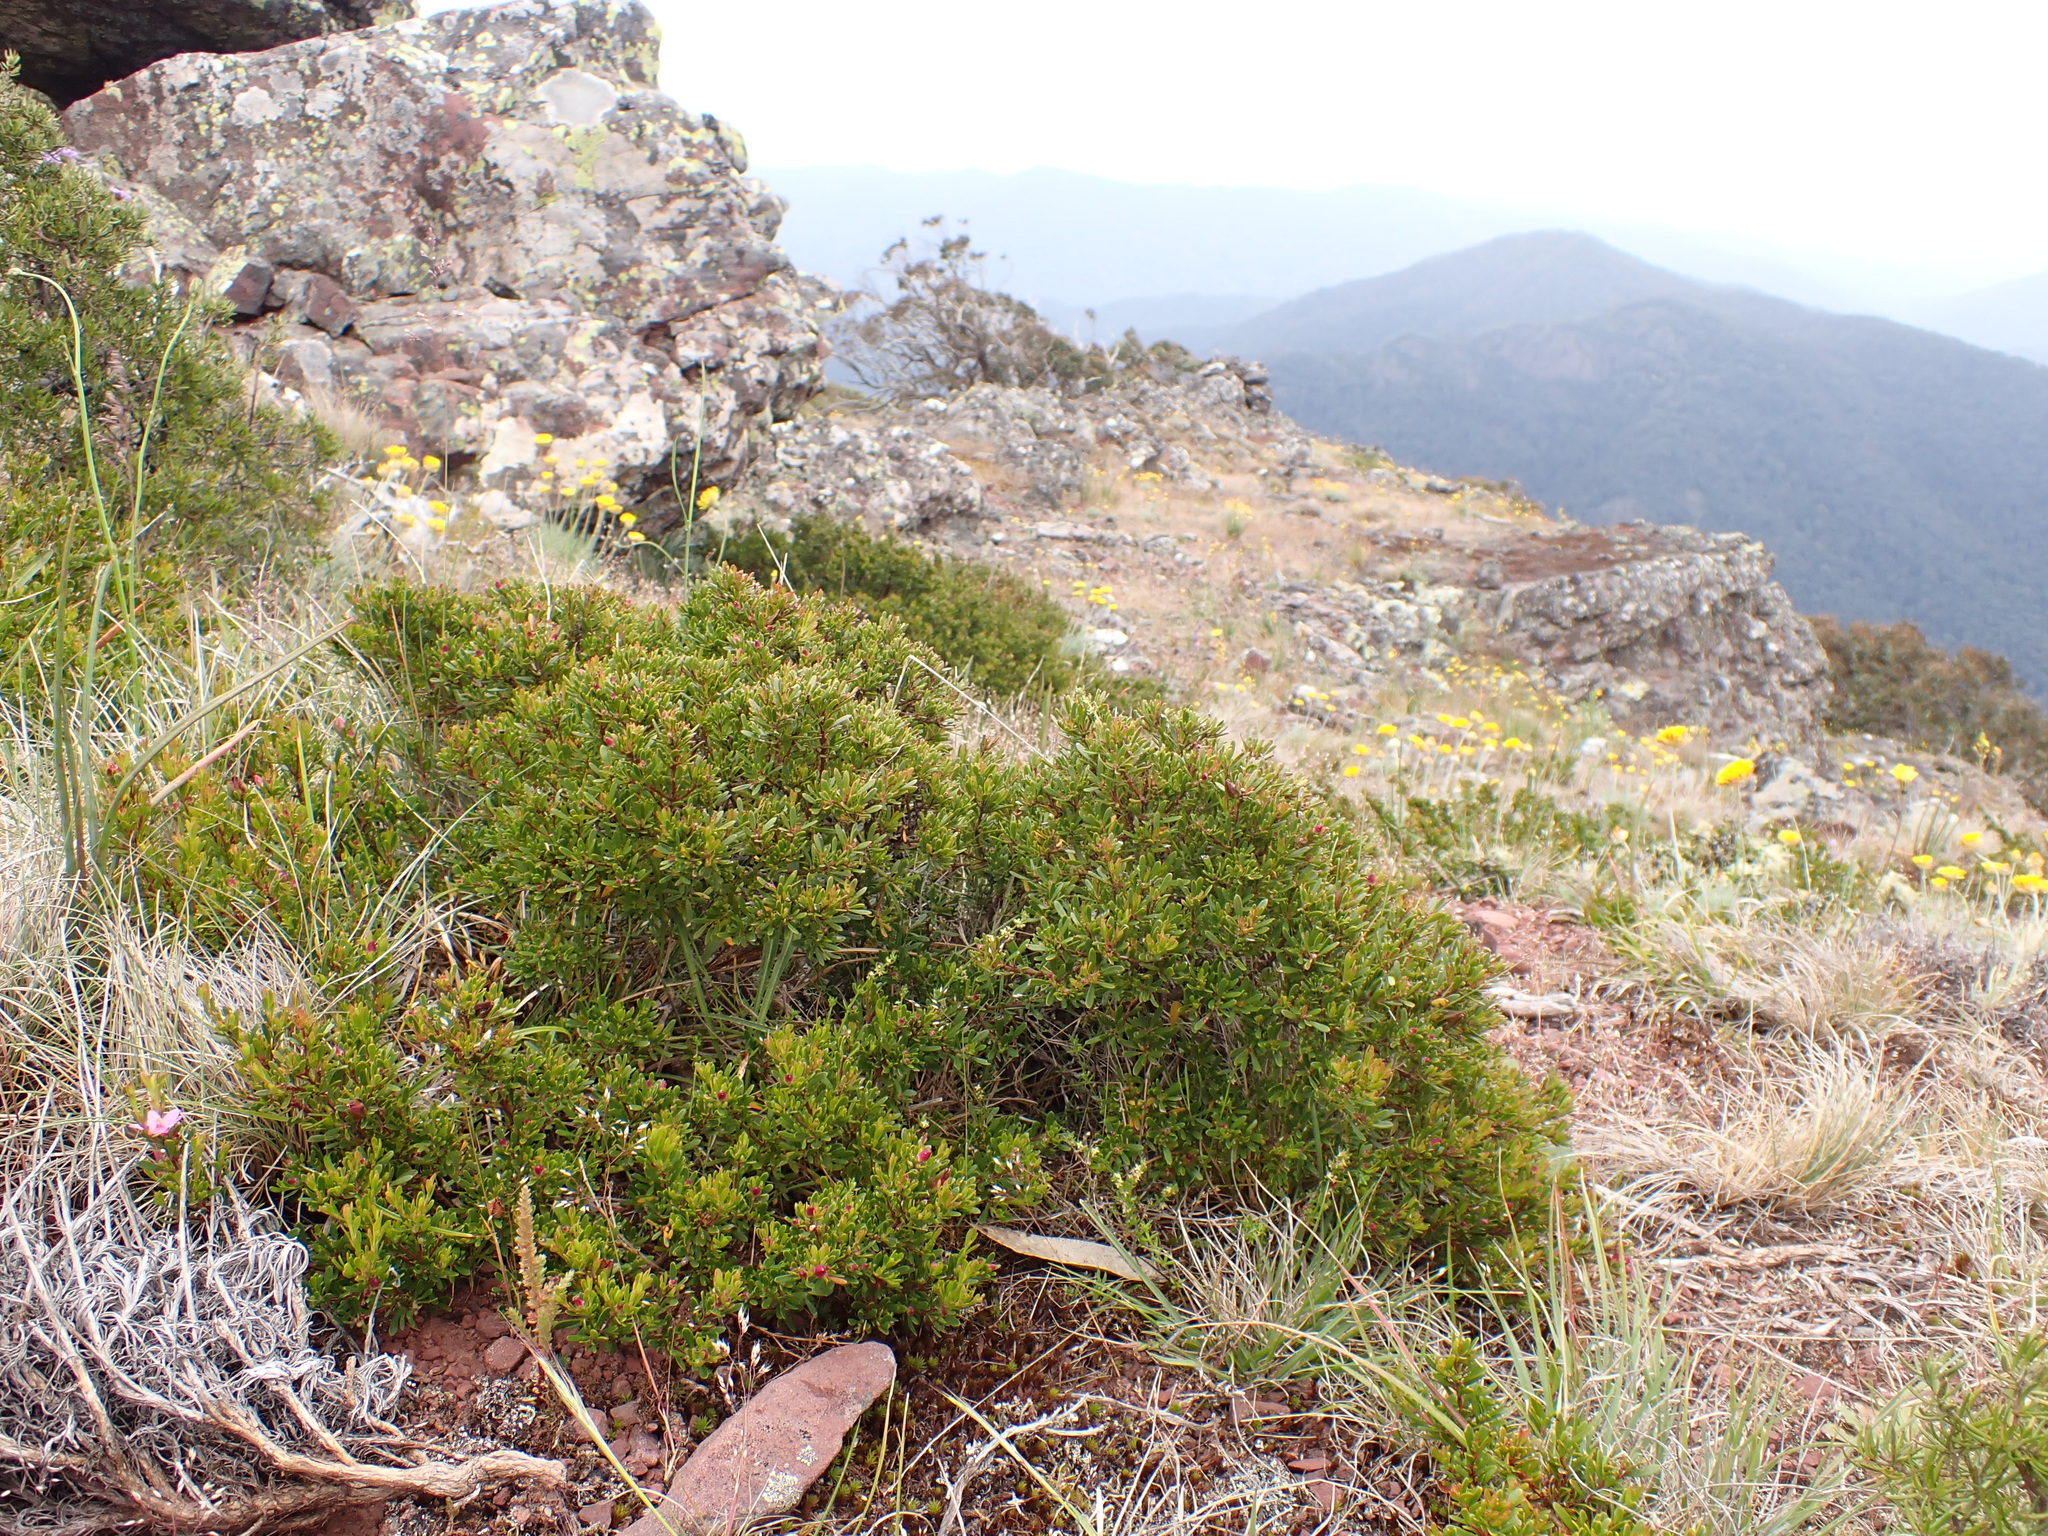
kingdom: Plantae
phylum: Tracheophyta
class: Magnoliopsida
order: Sapindales
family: Rutaceae
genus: Crowea
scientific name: Crowea exalata
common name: Small crowea
